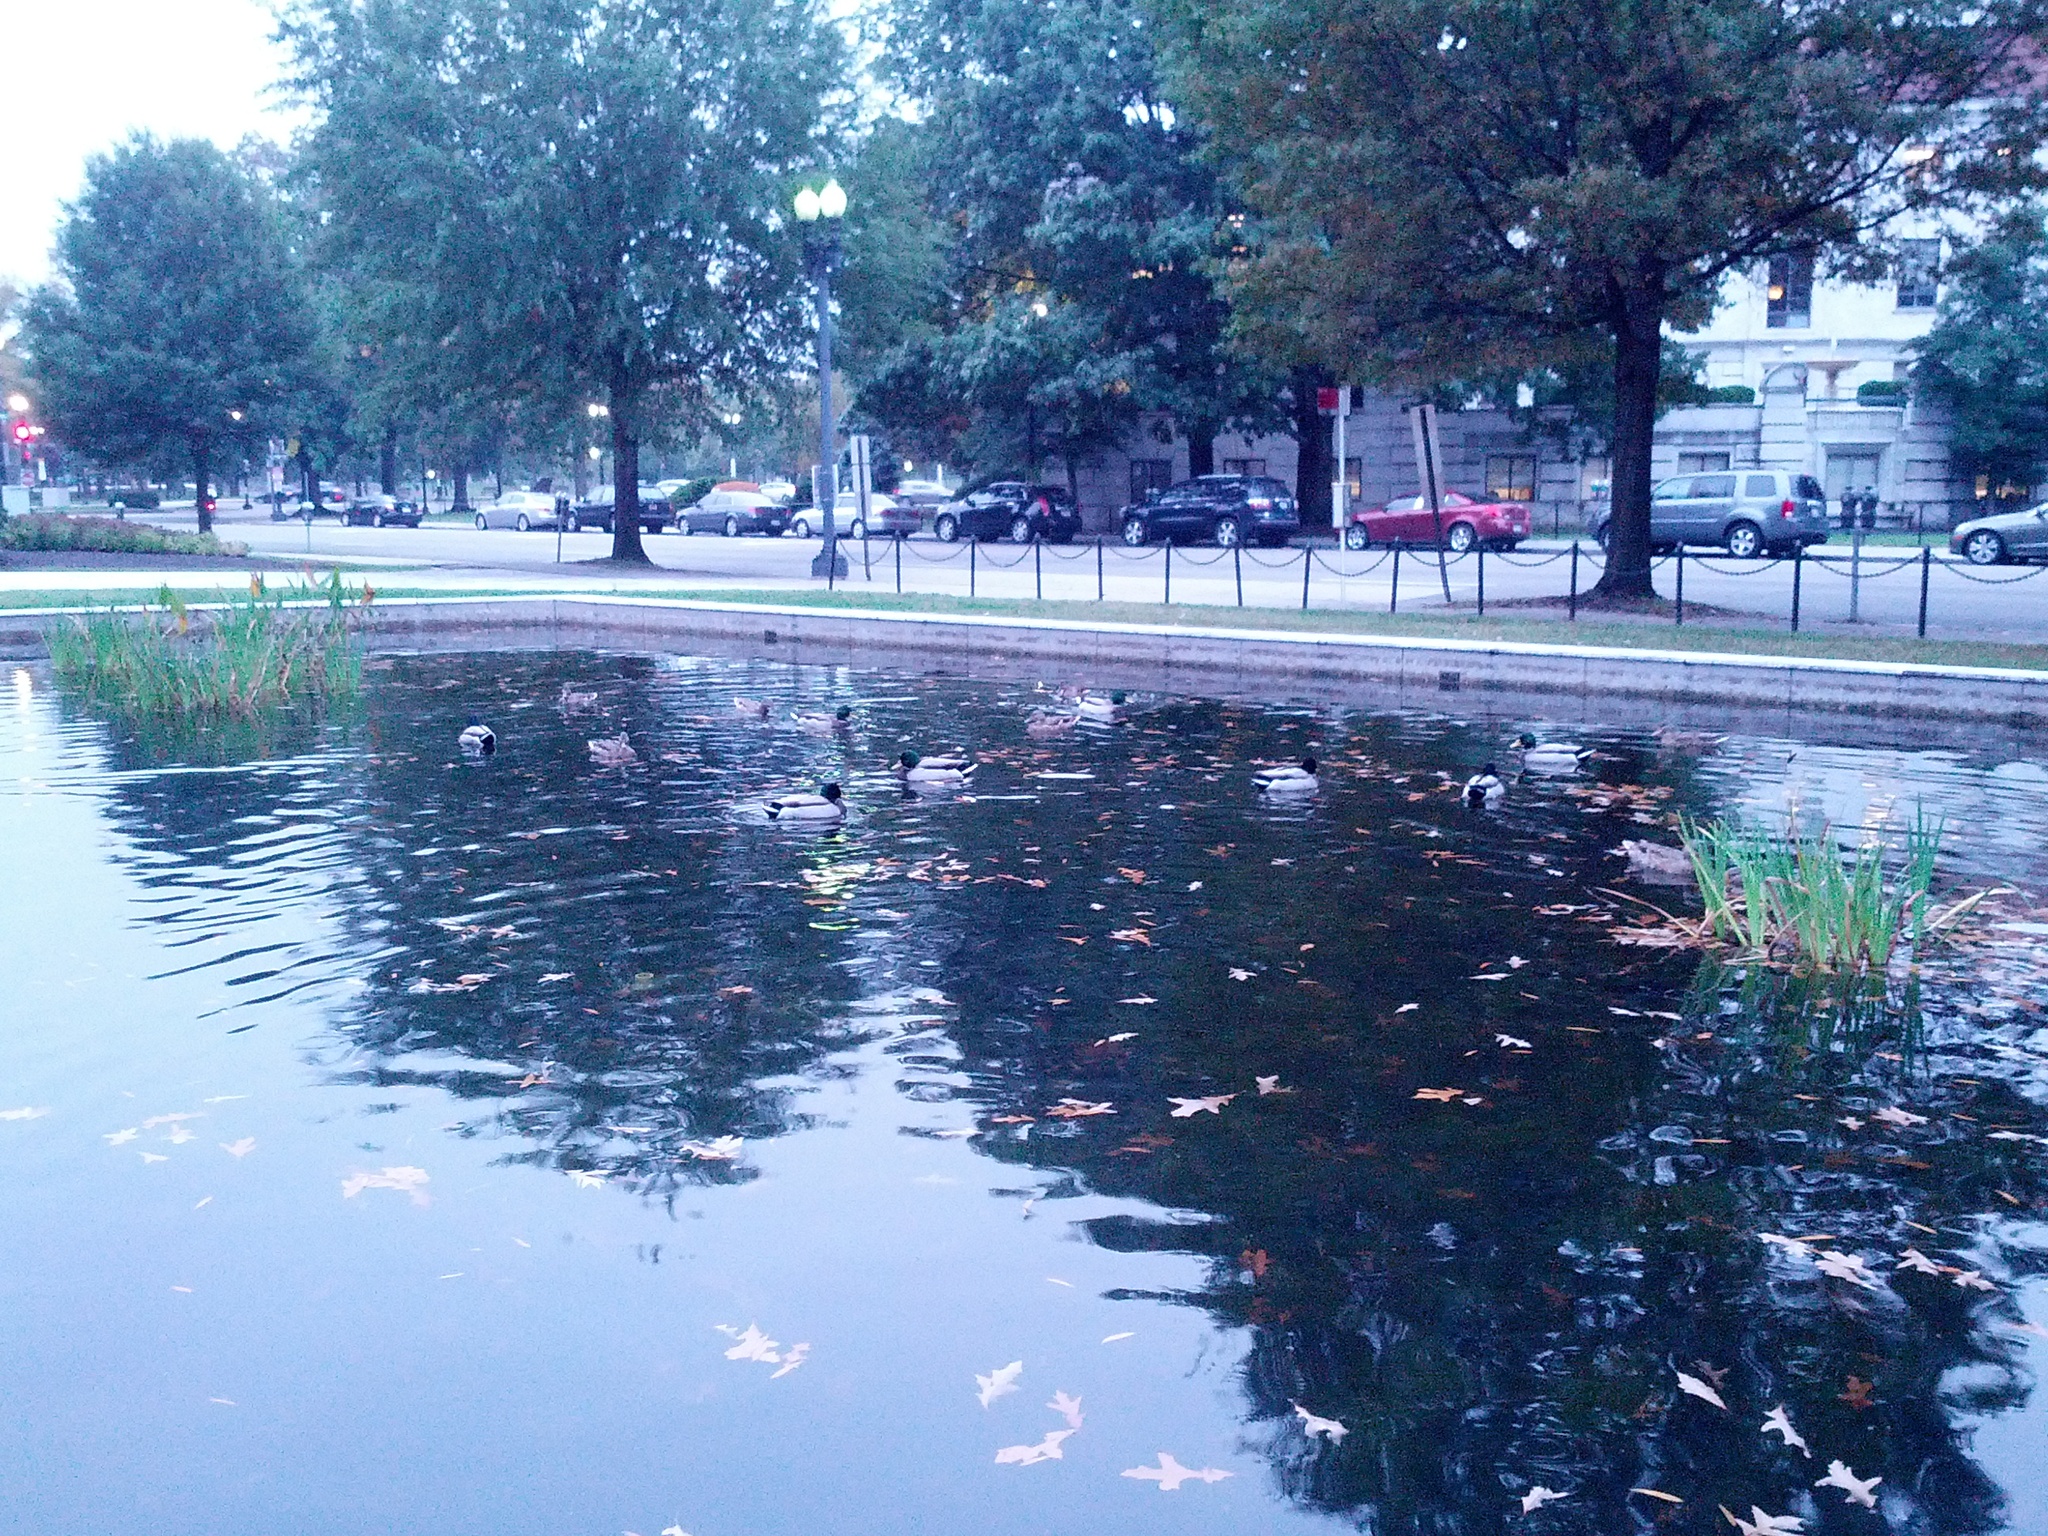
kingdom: Animalia
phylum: Chordata
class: Aves
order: Anseriformes
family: Anatidae
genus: Anas
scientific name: Anas platyrhynchos
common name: Mallard
